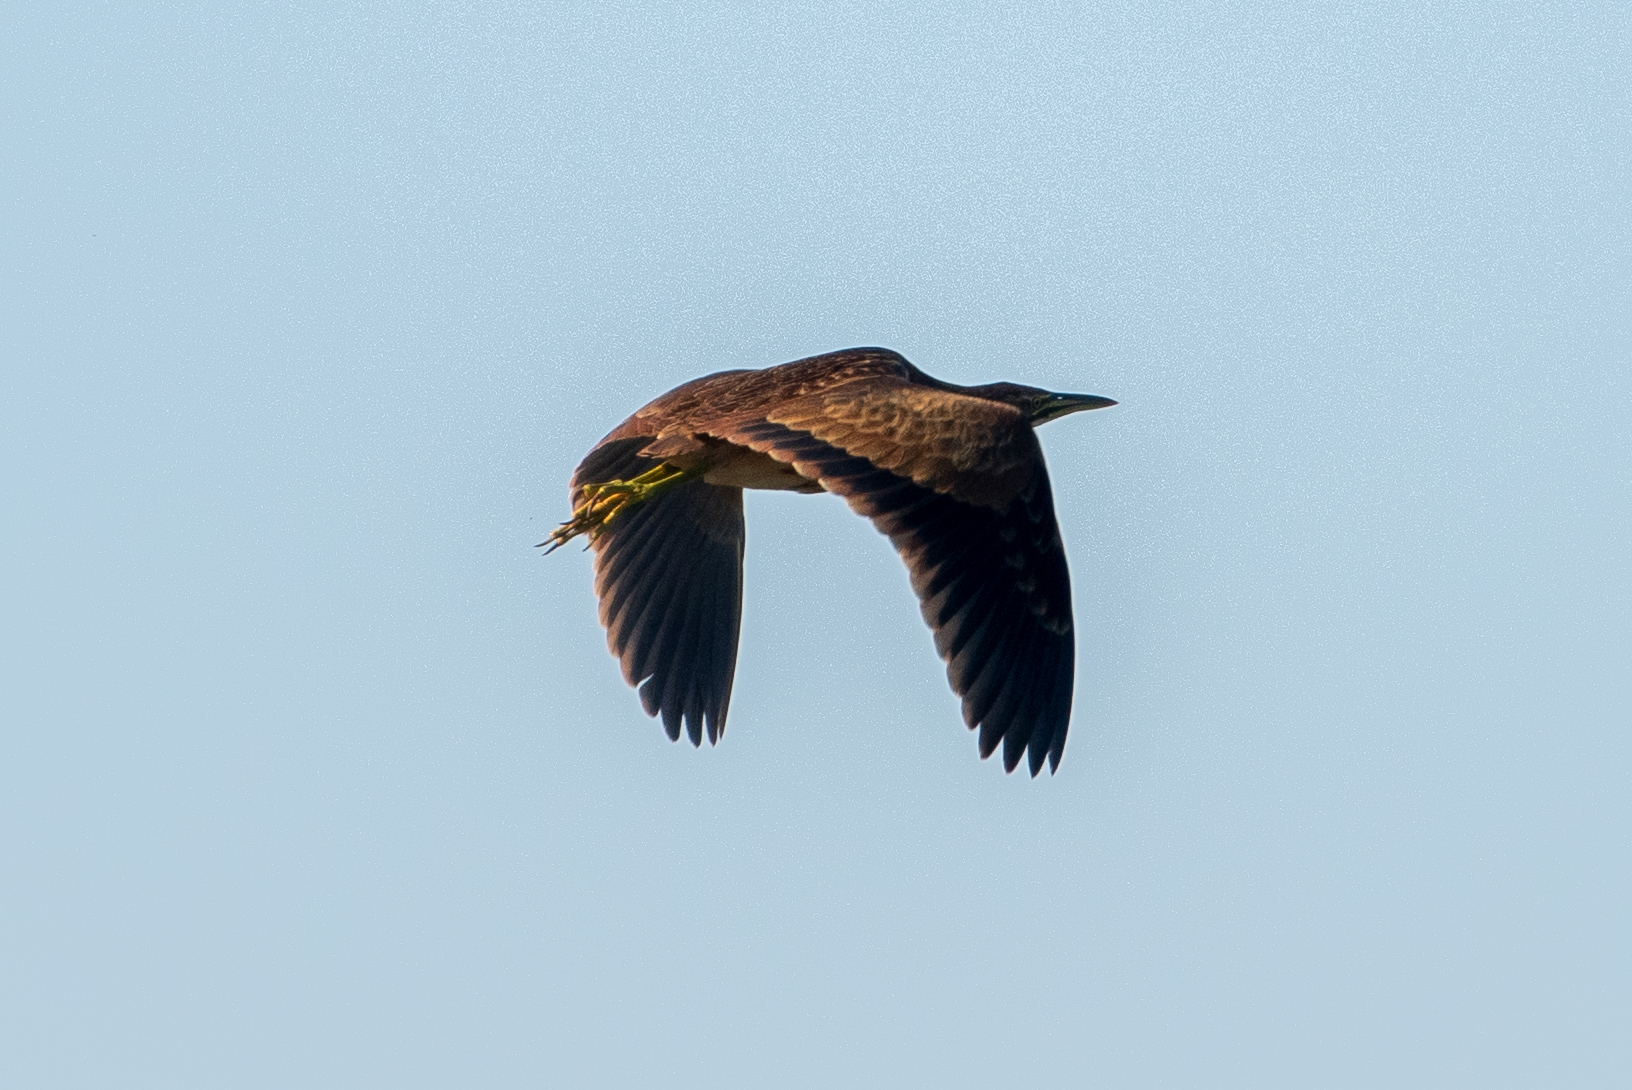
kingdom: Animalia
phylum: Chordata
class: Aves
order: Pelecaniformes
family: Ardeidae
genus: Botaurus
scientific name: Botaurus lentiginosus
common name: American bittern
